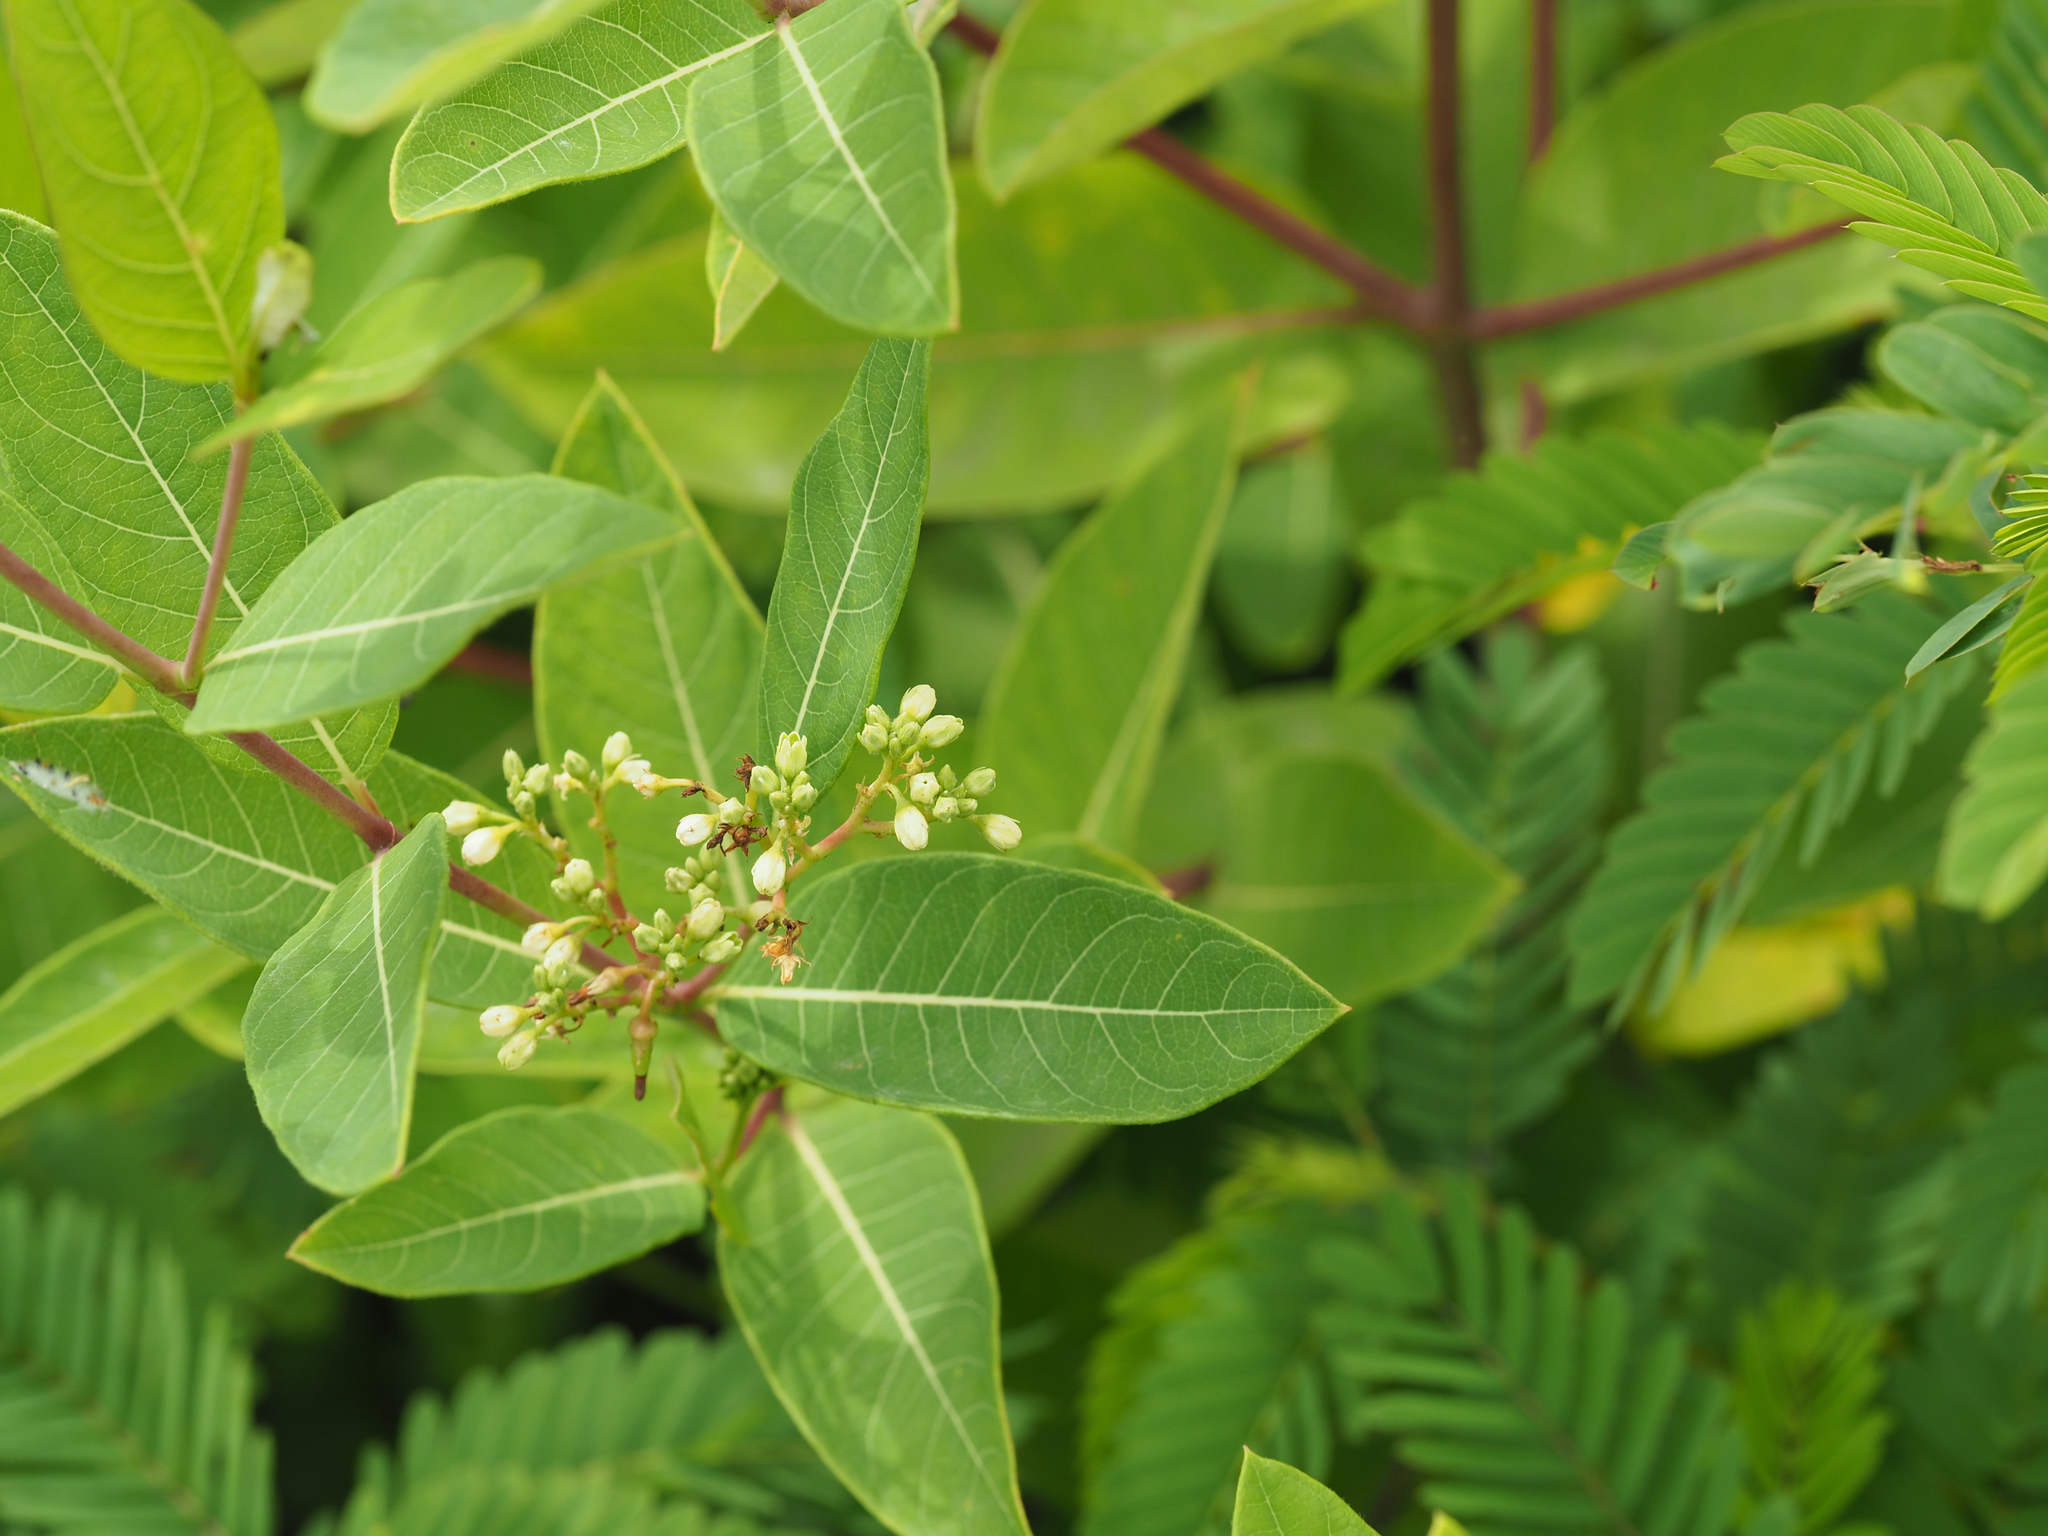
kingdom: Plantae
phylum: Tracheophyta
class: Magnoliopsida
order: Gentianales
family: Apocynaceae
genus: Apocynum
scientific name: Apocynum cannabinum
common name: Hemp dogbane
